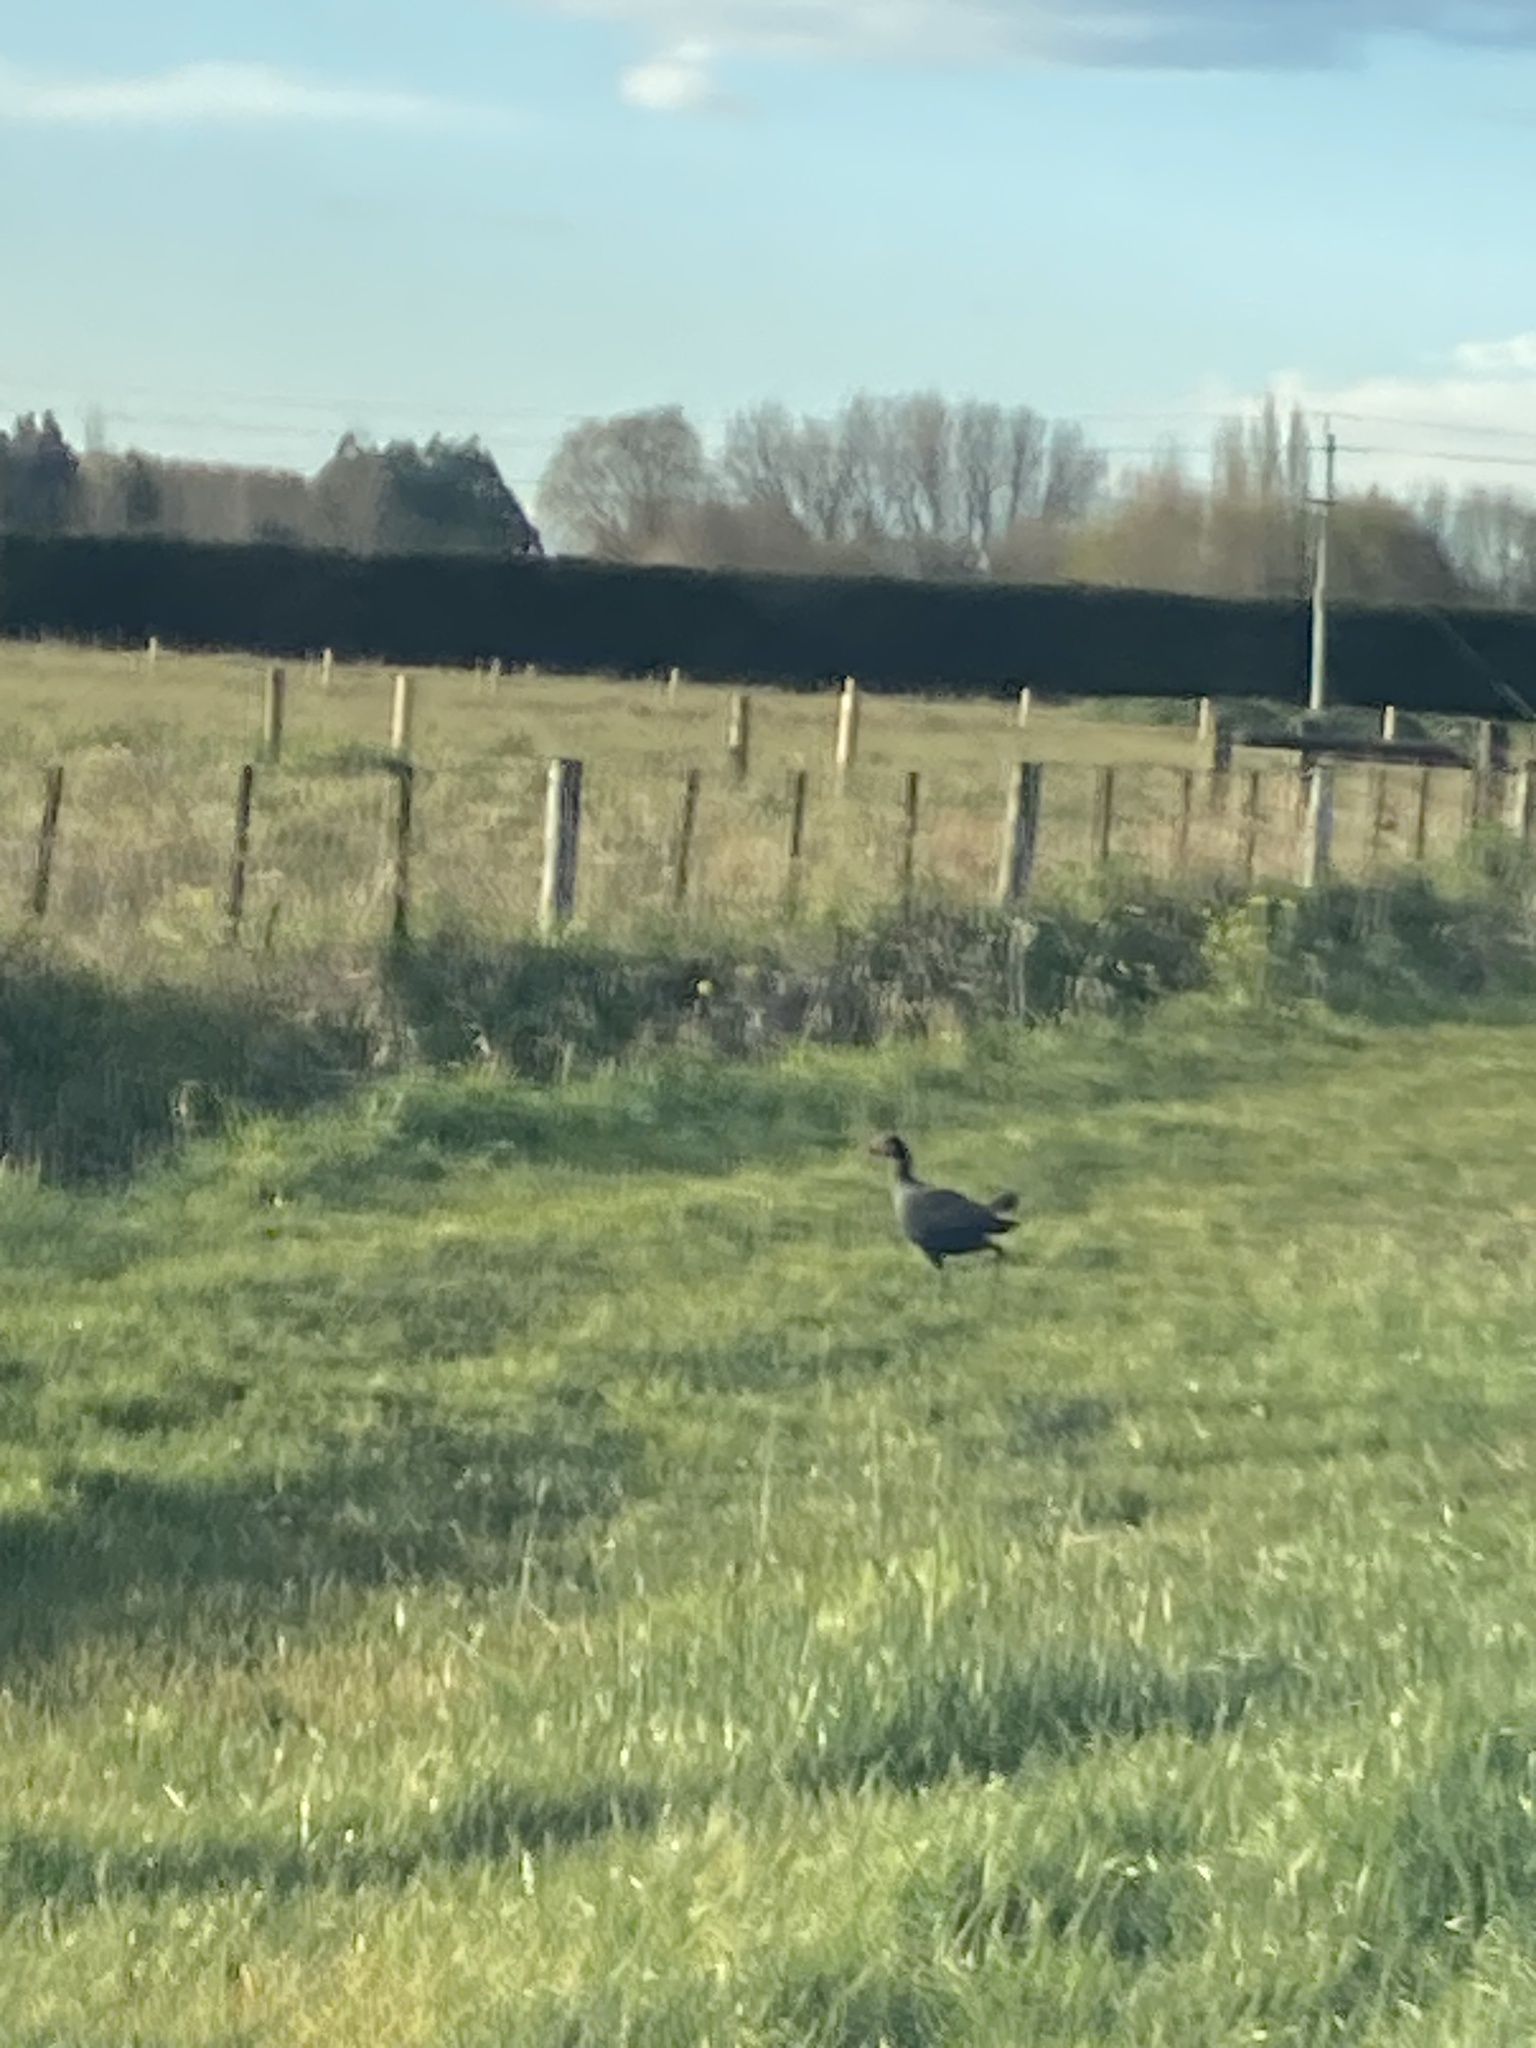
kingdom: Animalia
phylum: Chordata
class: Aves
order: Gruiformes
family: Rallidae
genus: Porphyrio
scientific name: Porphyrio melanotus
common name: Australasian swamphen
